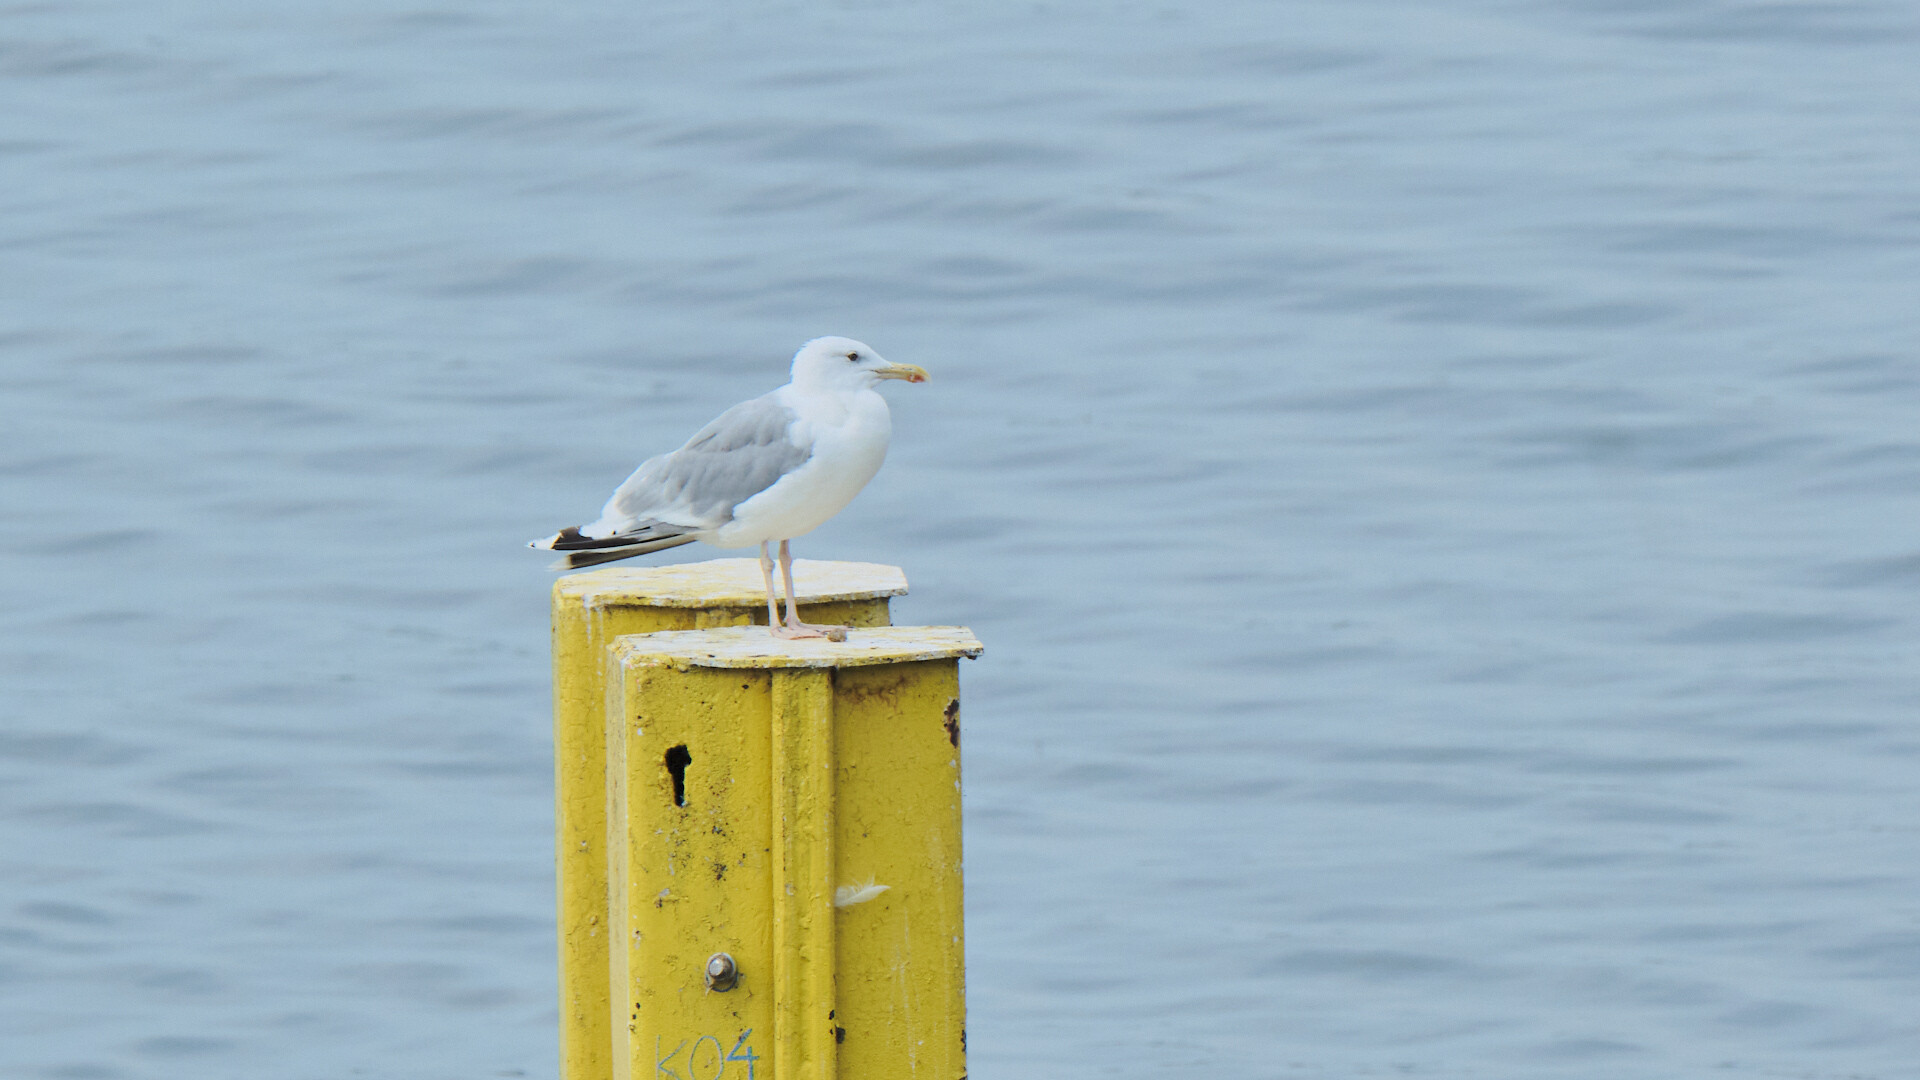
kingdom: Animalia
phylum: Chordata
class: Aves
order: Charadriiformes
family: Laridae
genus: Larus
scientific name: Larus cachinnans
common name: Caspian gull
